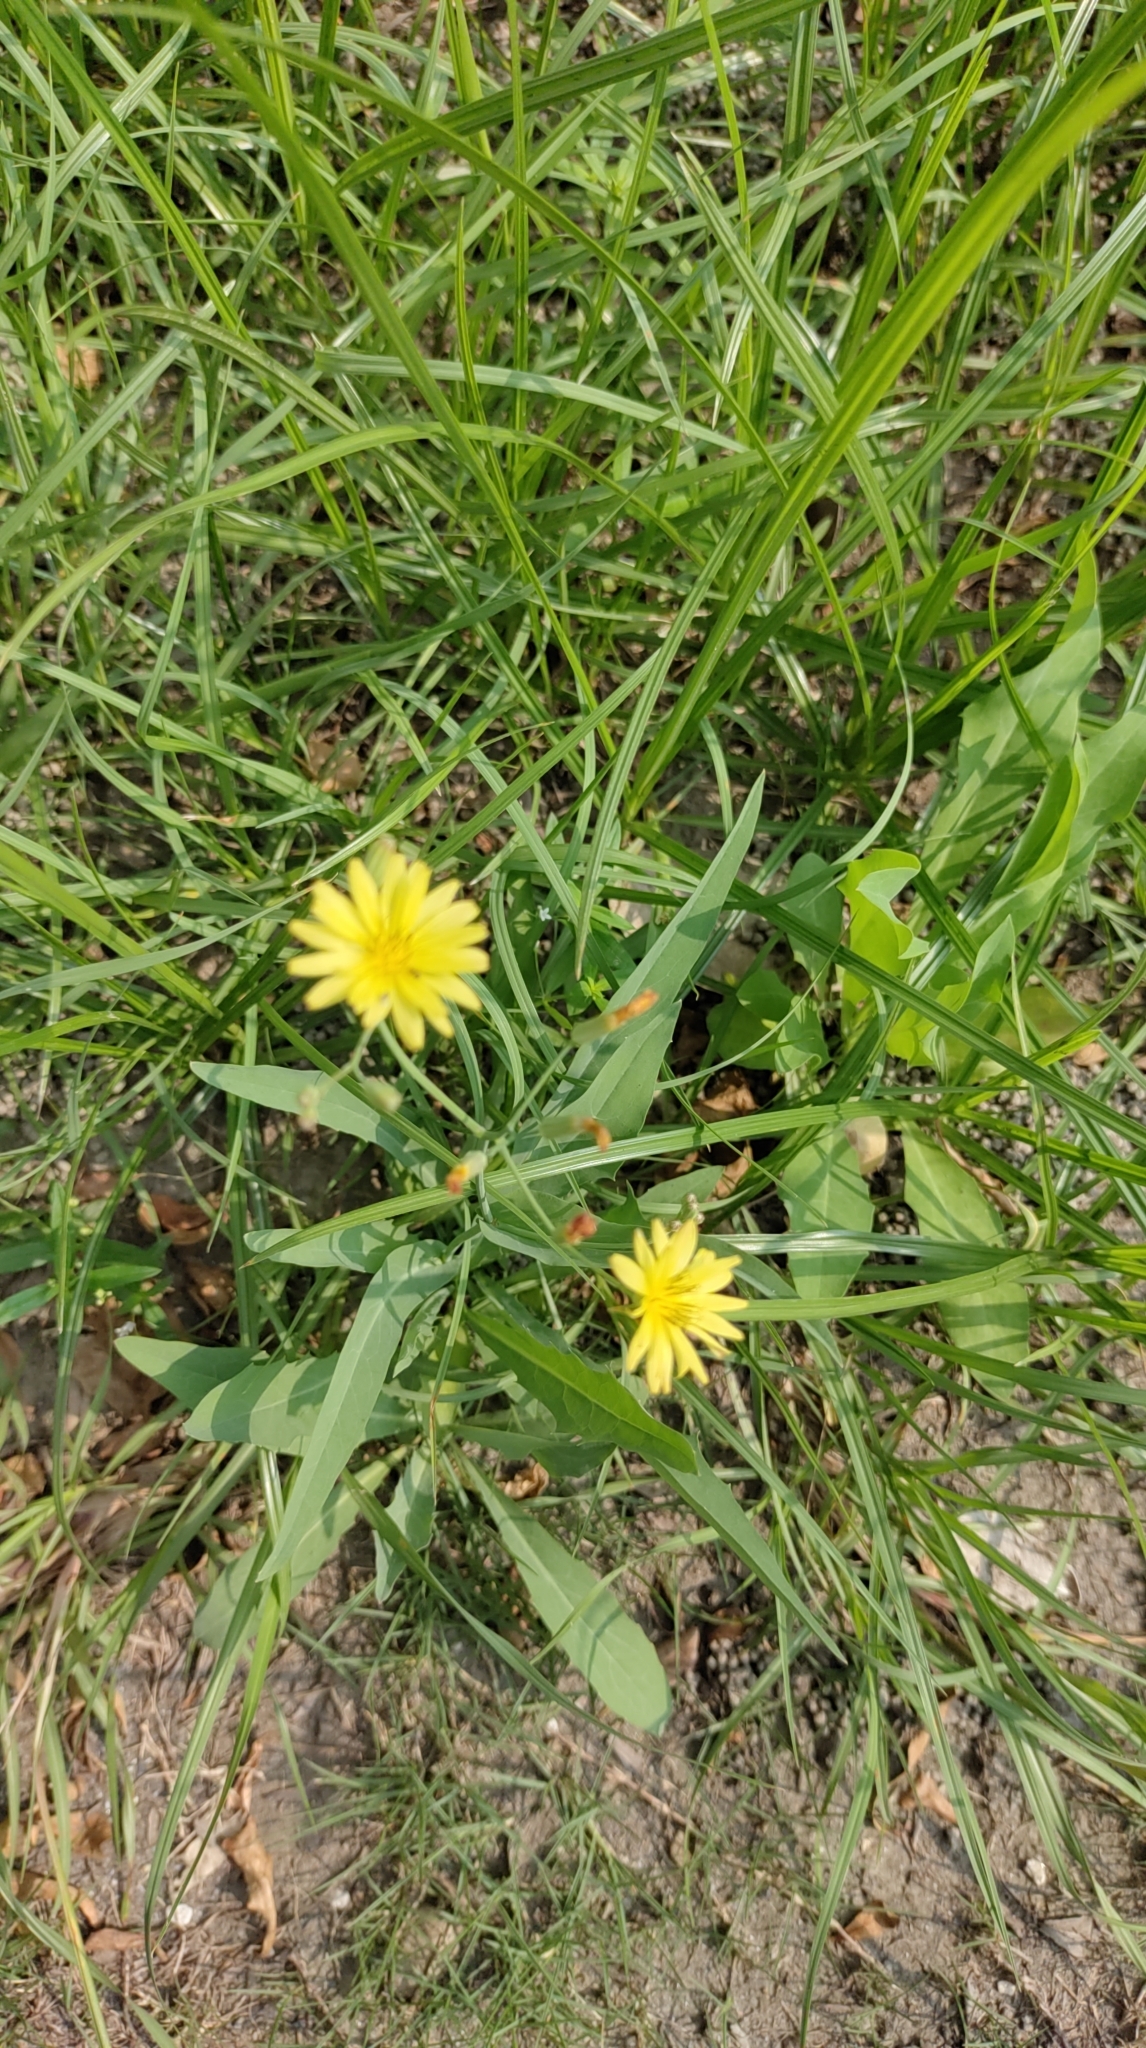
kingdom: Plantae
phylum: Tracheophyta
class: Magnoliopsida
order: Asterales
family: Asteraceae
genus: Ixeris
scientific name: Ixeris chinensis
